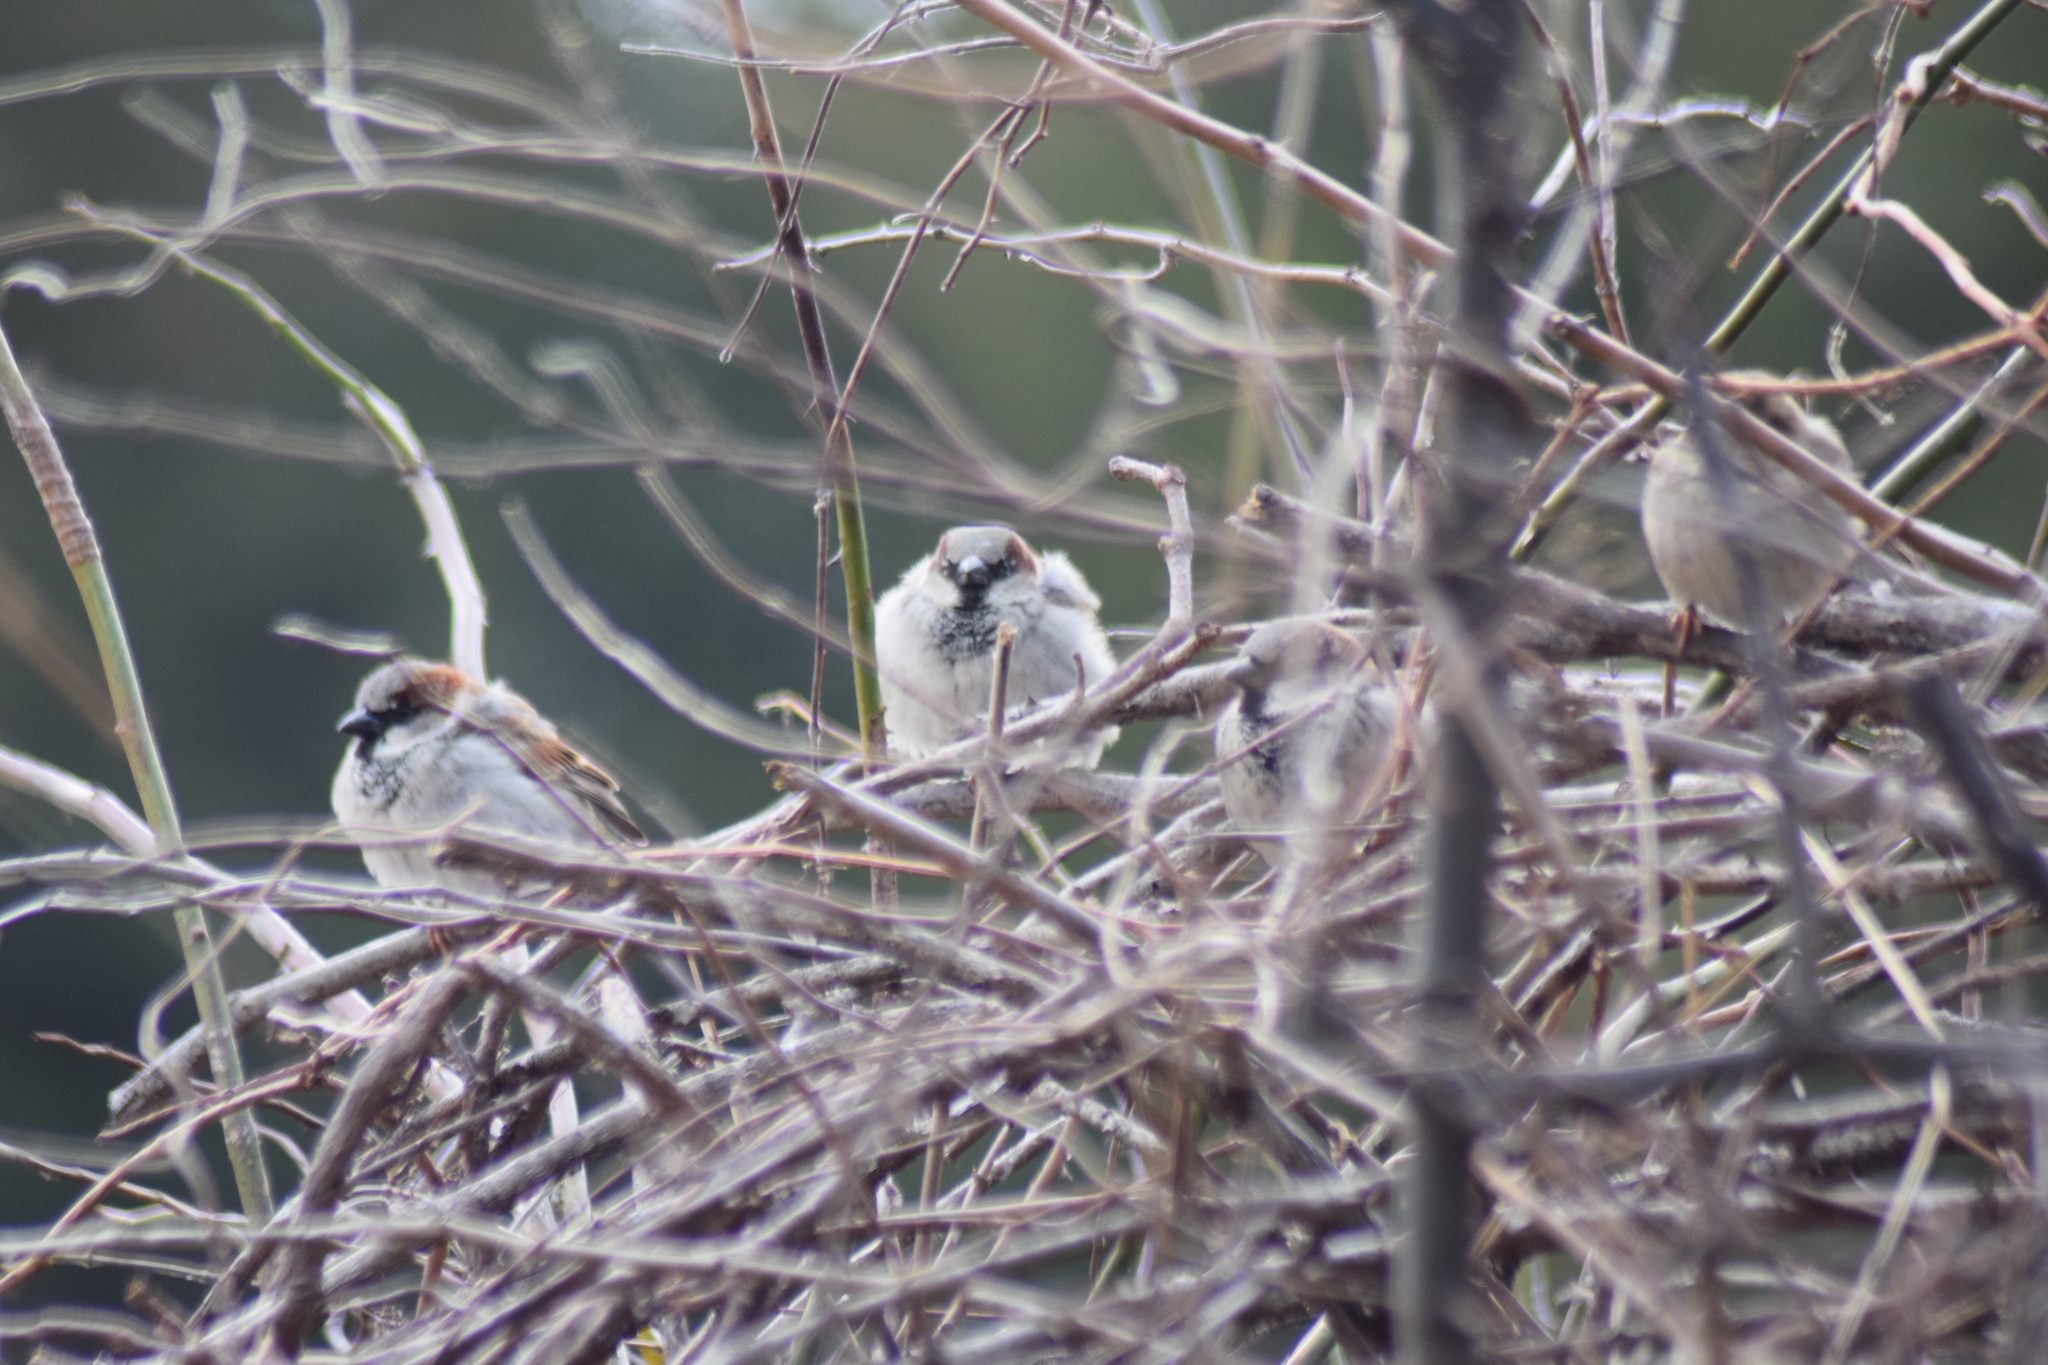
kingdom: Animalia
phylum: Chordata
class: Aves
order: Passeriformes
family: Passeridae
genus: Passer
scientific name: Passer domesticus
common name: House sparrow
